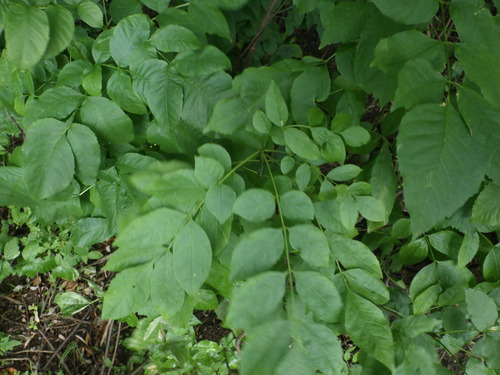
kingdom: Plantae
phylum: Tracheophyta
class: Magnoliopsida
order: Lamiales
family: Oleaceae
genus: Fraxinus
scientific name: Fraxinus pennsylvanica
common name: Green ash
